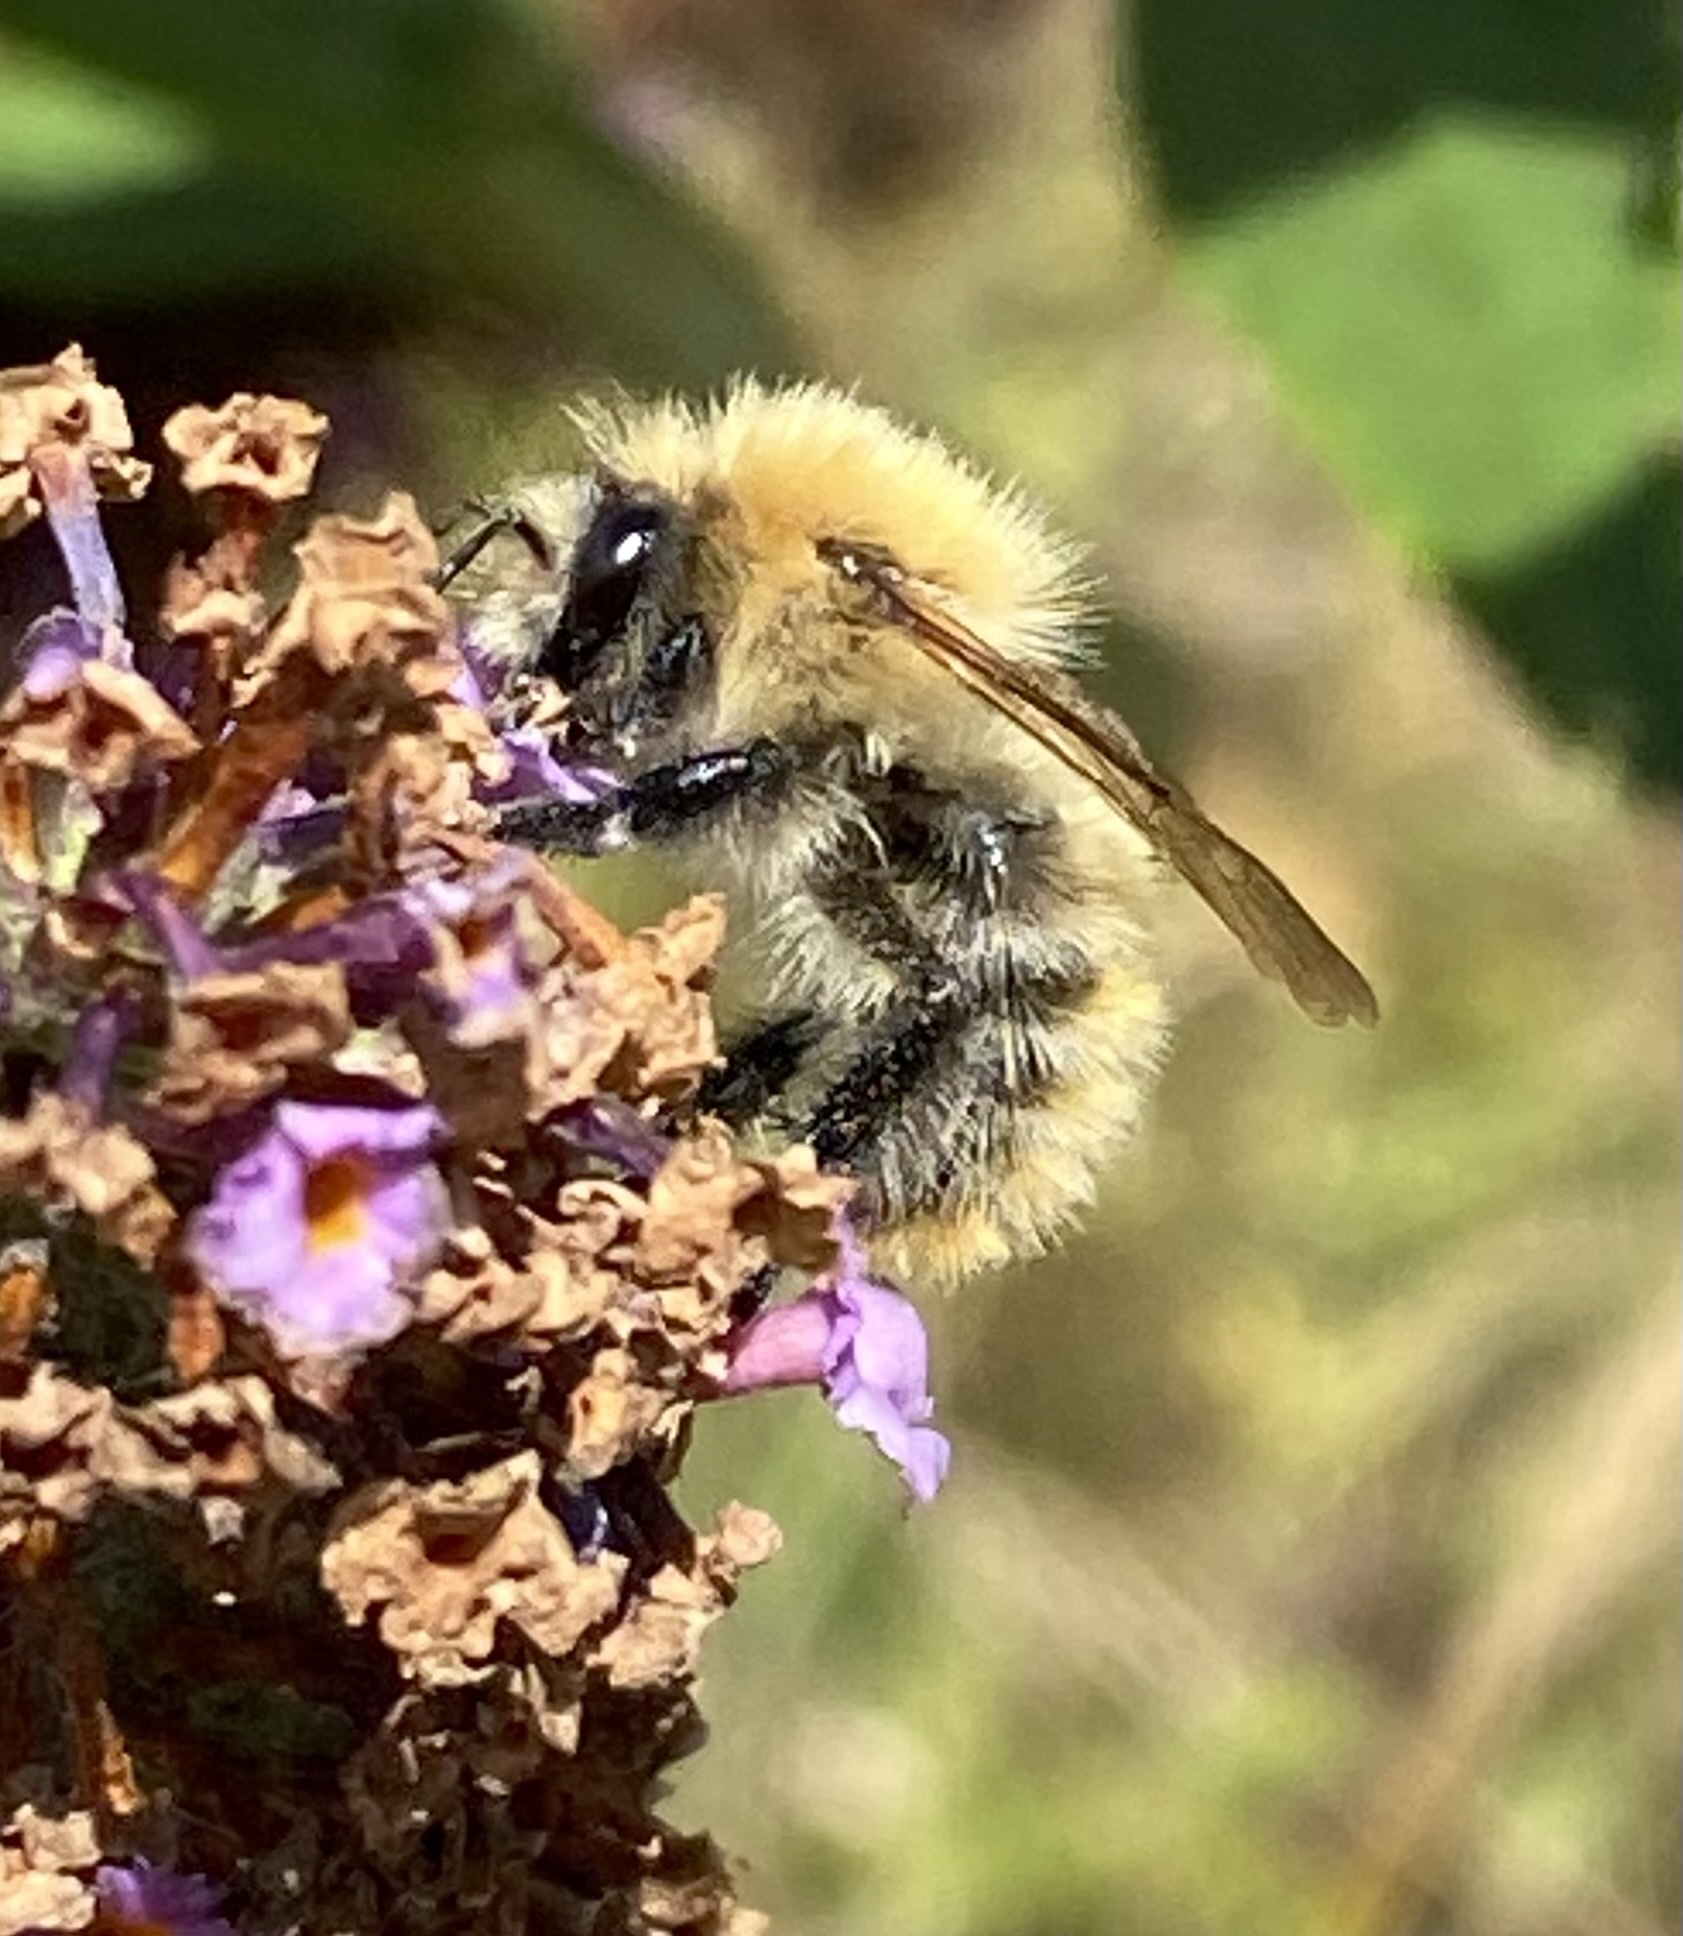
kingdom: Animalia
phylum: Arthropoda
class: Insecta
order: Hymenoptera
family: Apidae
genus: Bombus
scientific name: Bombus pascuorum
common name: Common carder bee
